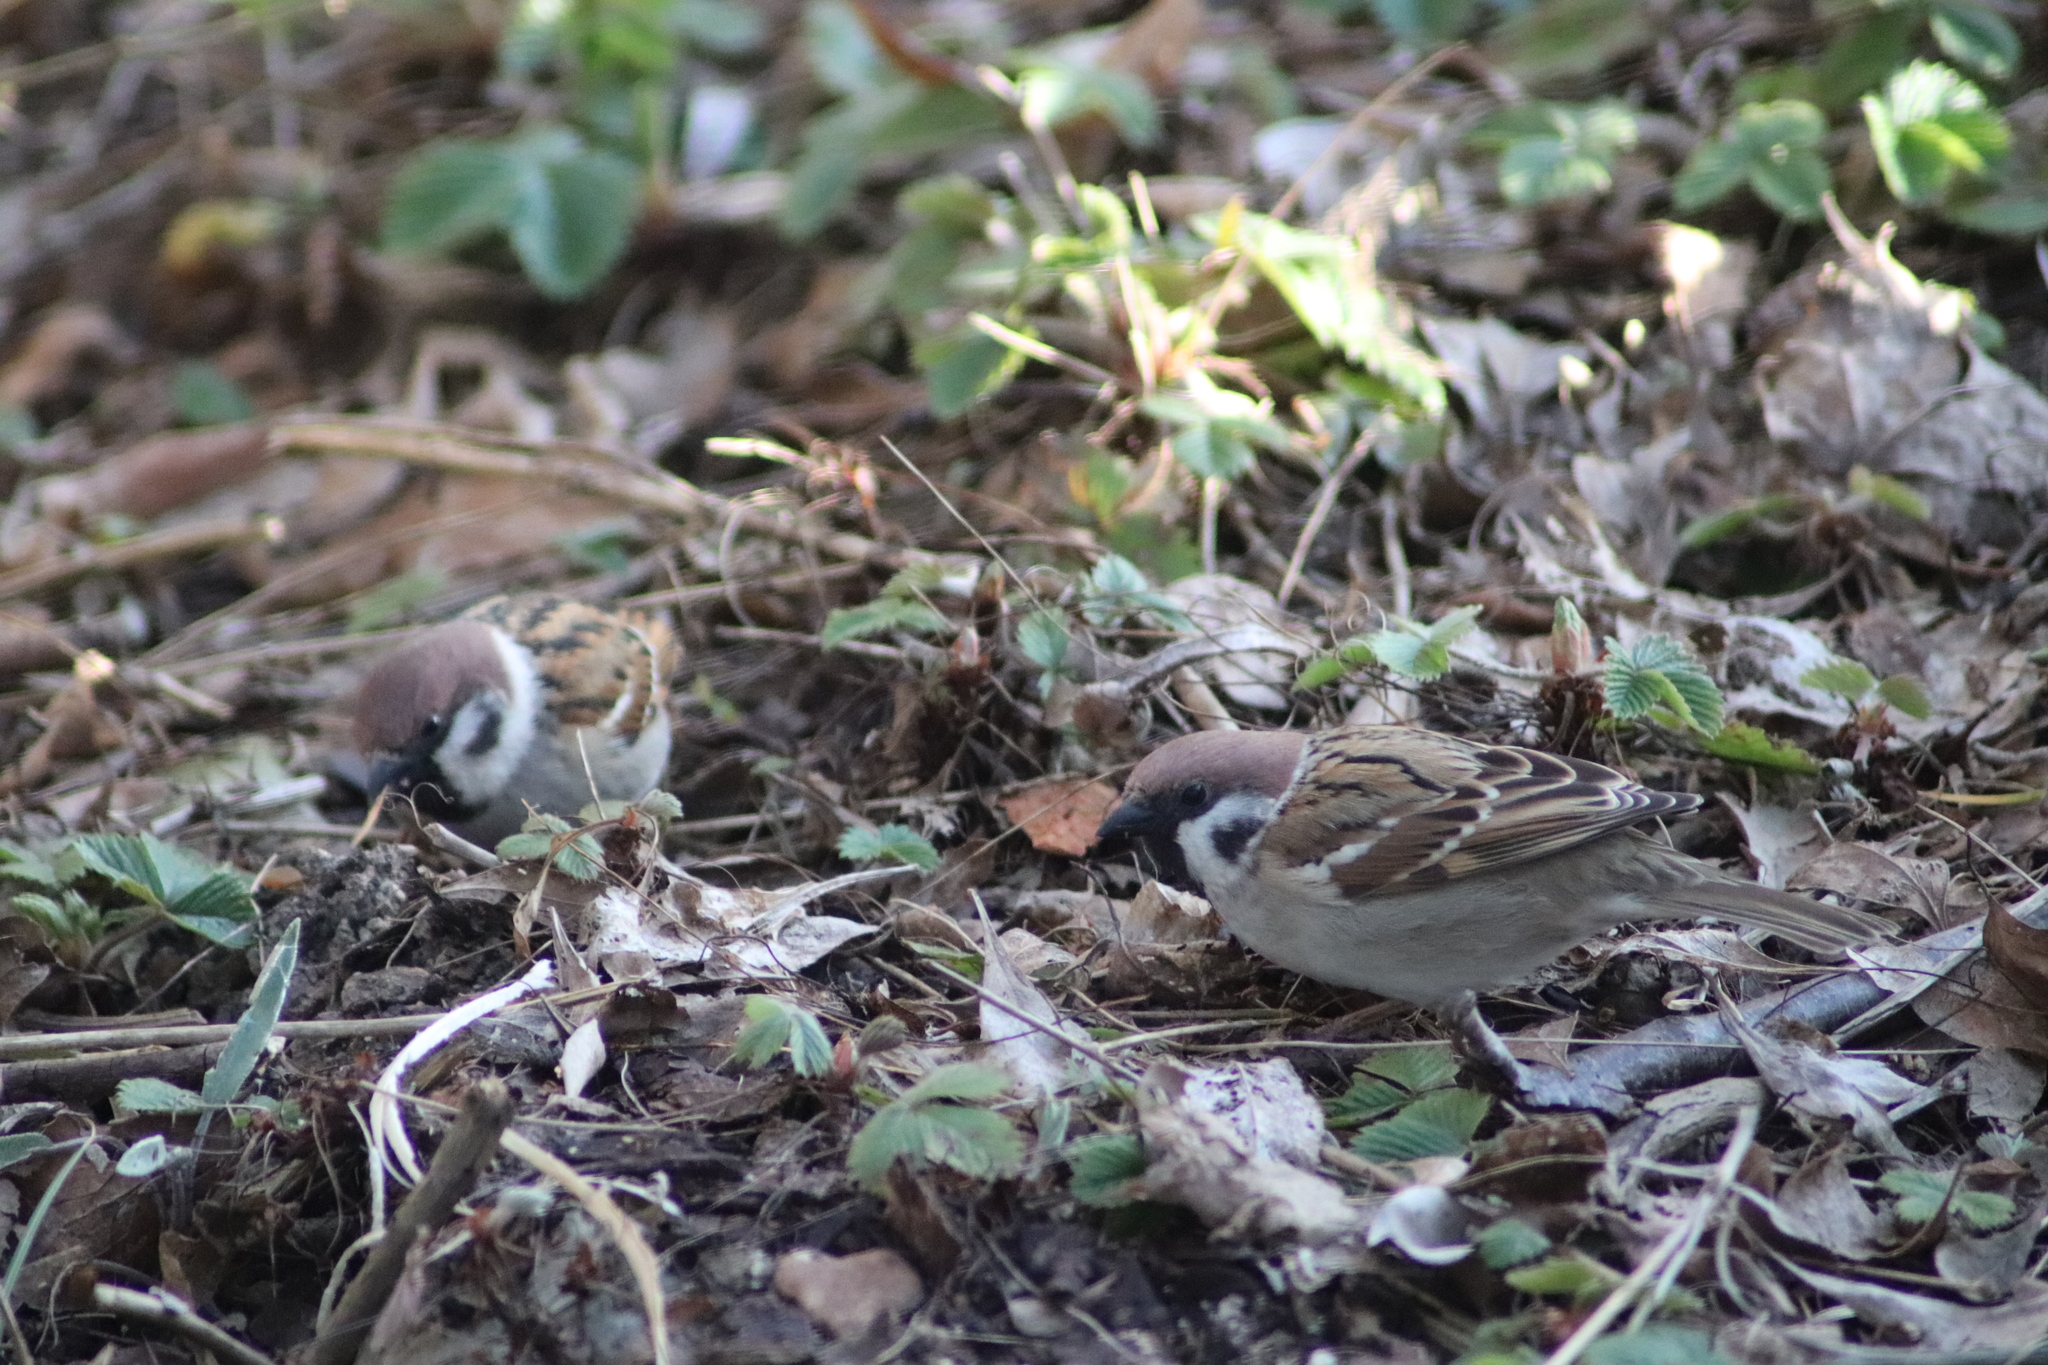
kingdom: Animalia
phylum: Chordata
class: Aves
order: Passeriformes
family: Passeridae
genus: Passer
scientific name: Passer montanus
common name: Eurasian tree sparrow
